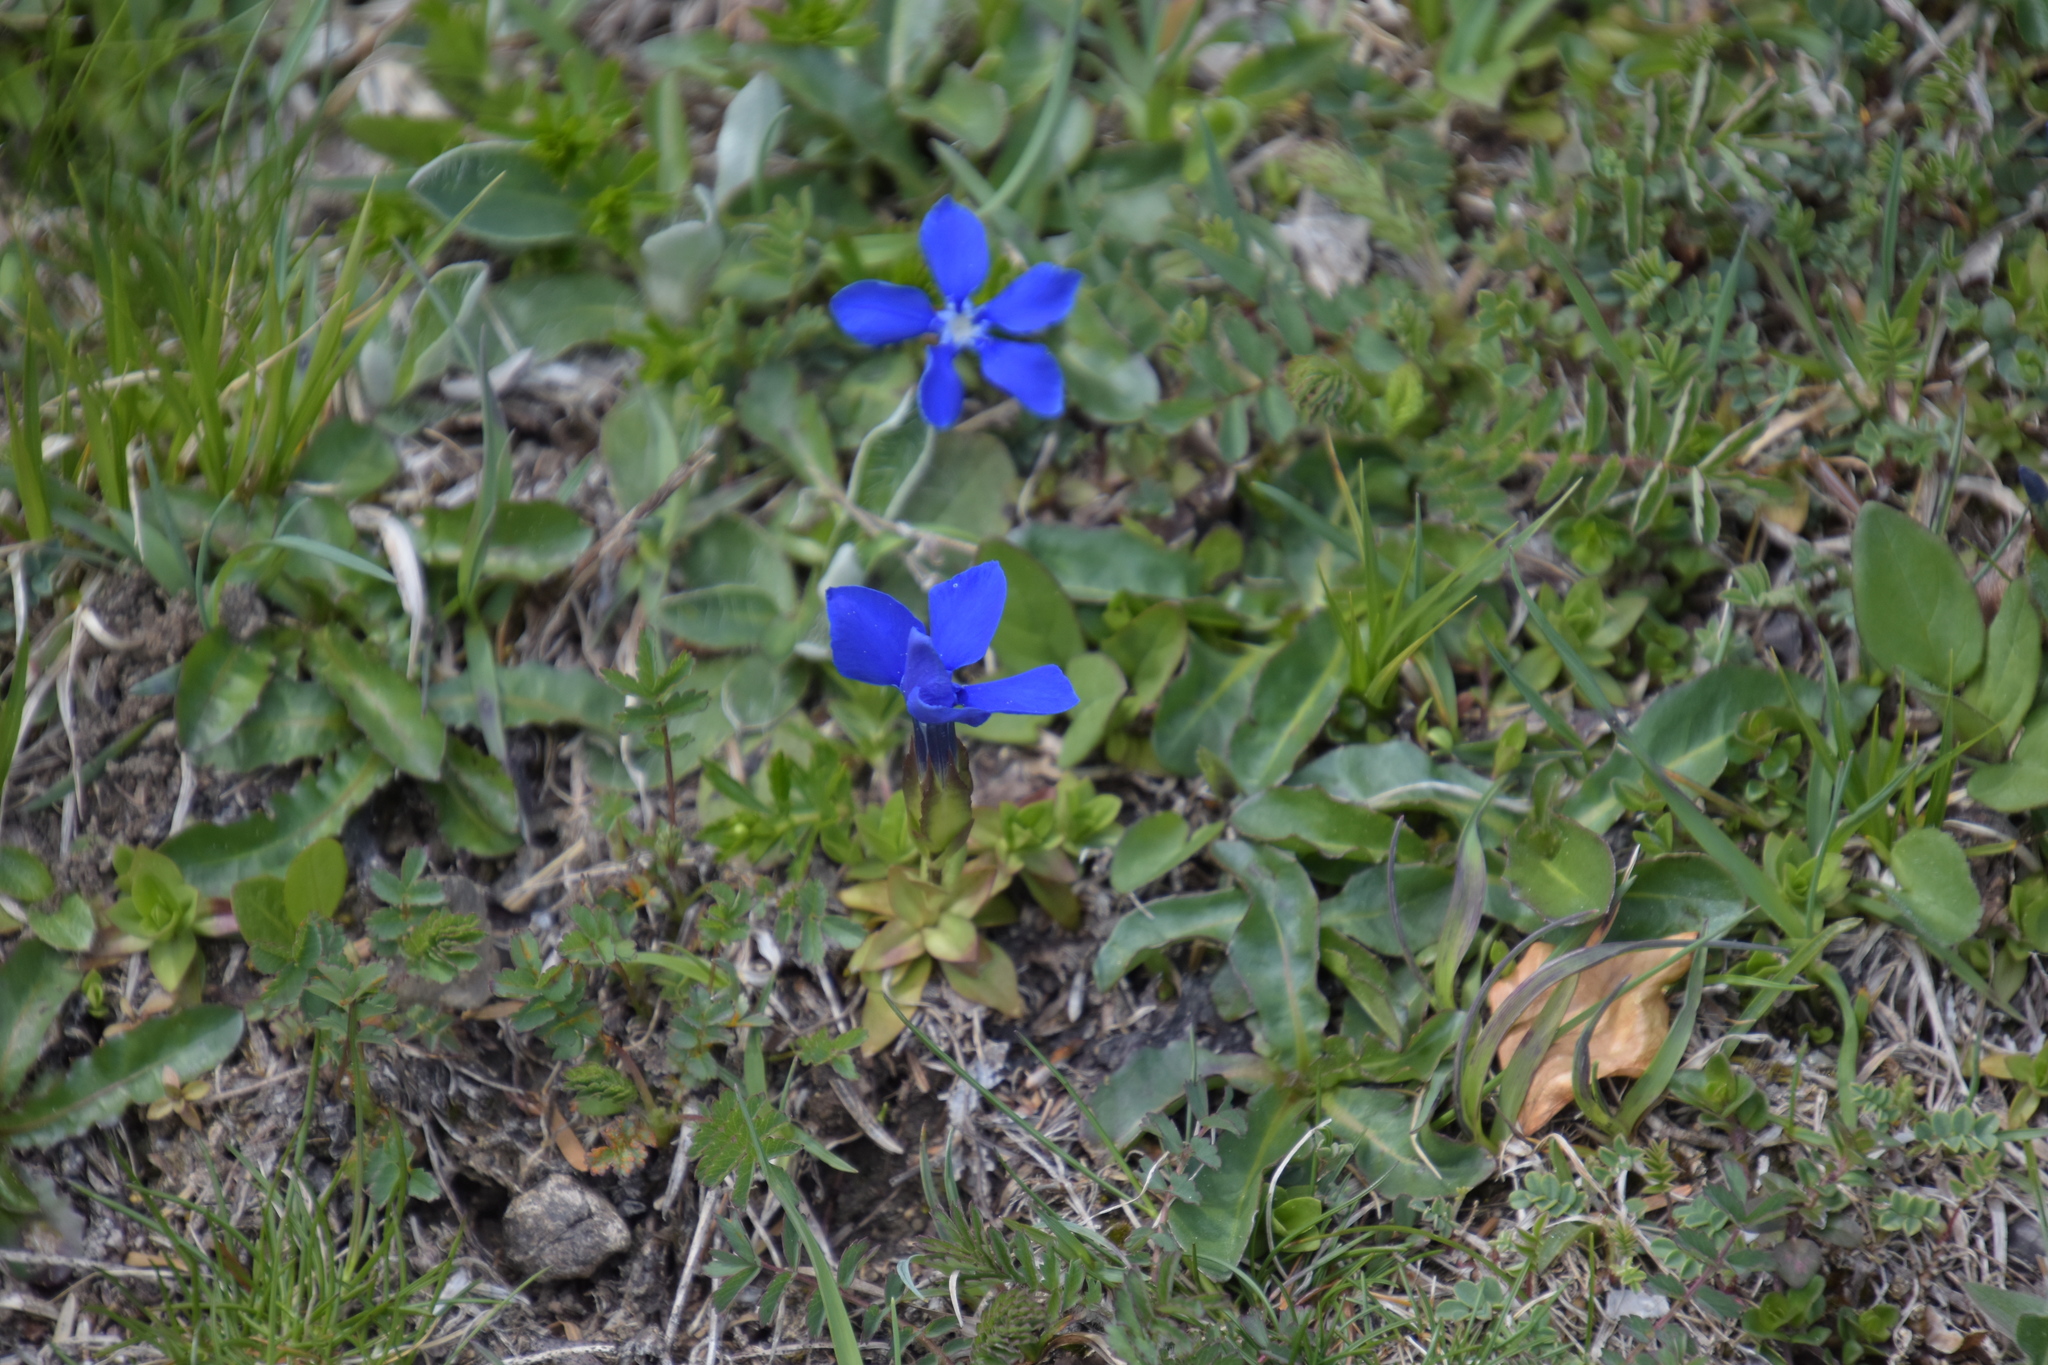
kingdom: Plantae
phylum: Tracheophyta
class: Magnoliopsida
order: Gentianales
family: Gentianaceae
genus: Gentiana
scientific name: Gentiana verna
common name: Spring gentian
